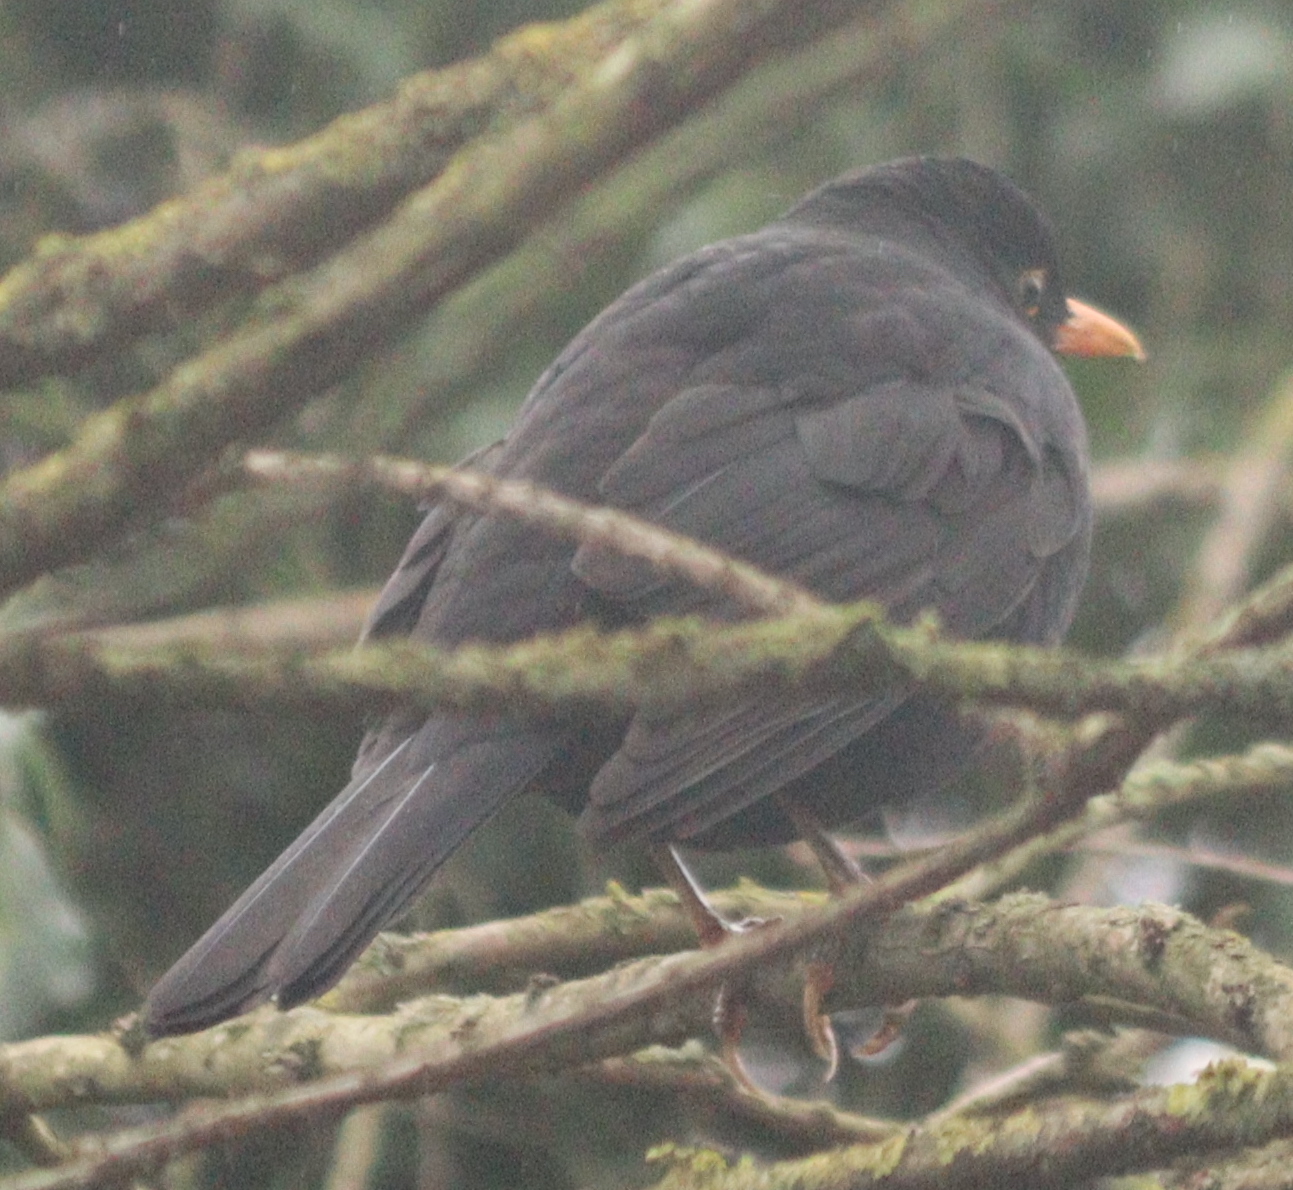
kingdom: Animalia
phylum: Chordata
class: Aves
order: Passeriformes
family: Turdidae
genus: Turdus
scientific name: Turdus merula
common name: Common blackbird
